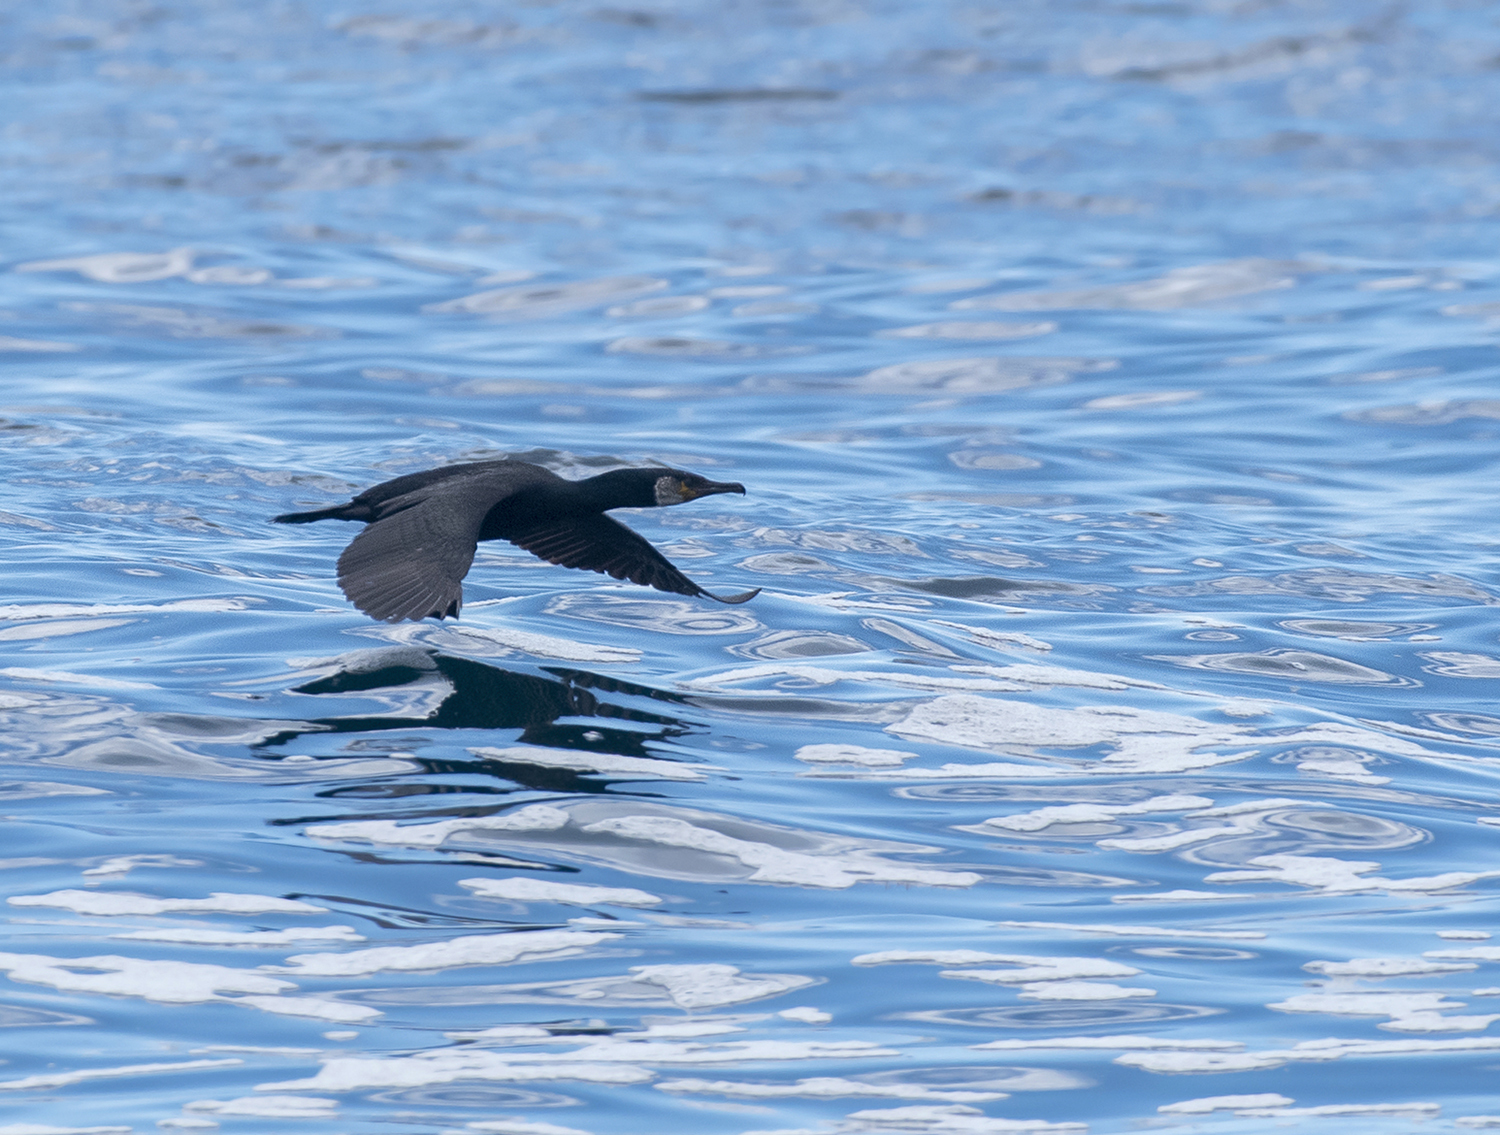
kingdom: Animalia
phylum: Chordata
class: Aves
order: Suliformes
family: Phalacrocoracidae
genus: Phalacrocorax
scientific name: Phalacrocorax carbo
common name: Great cormorant
